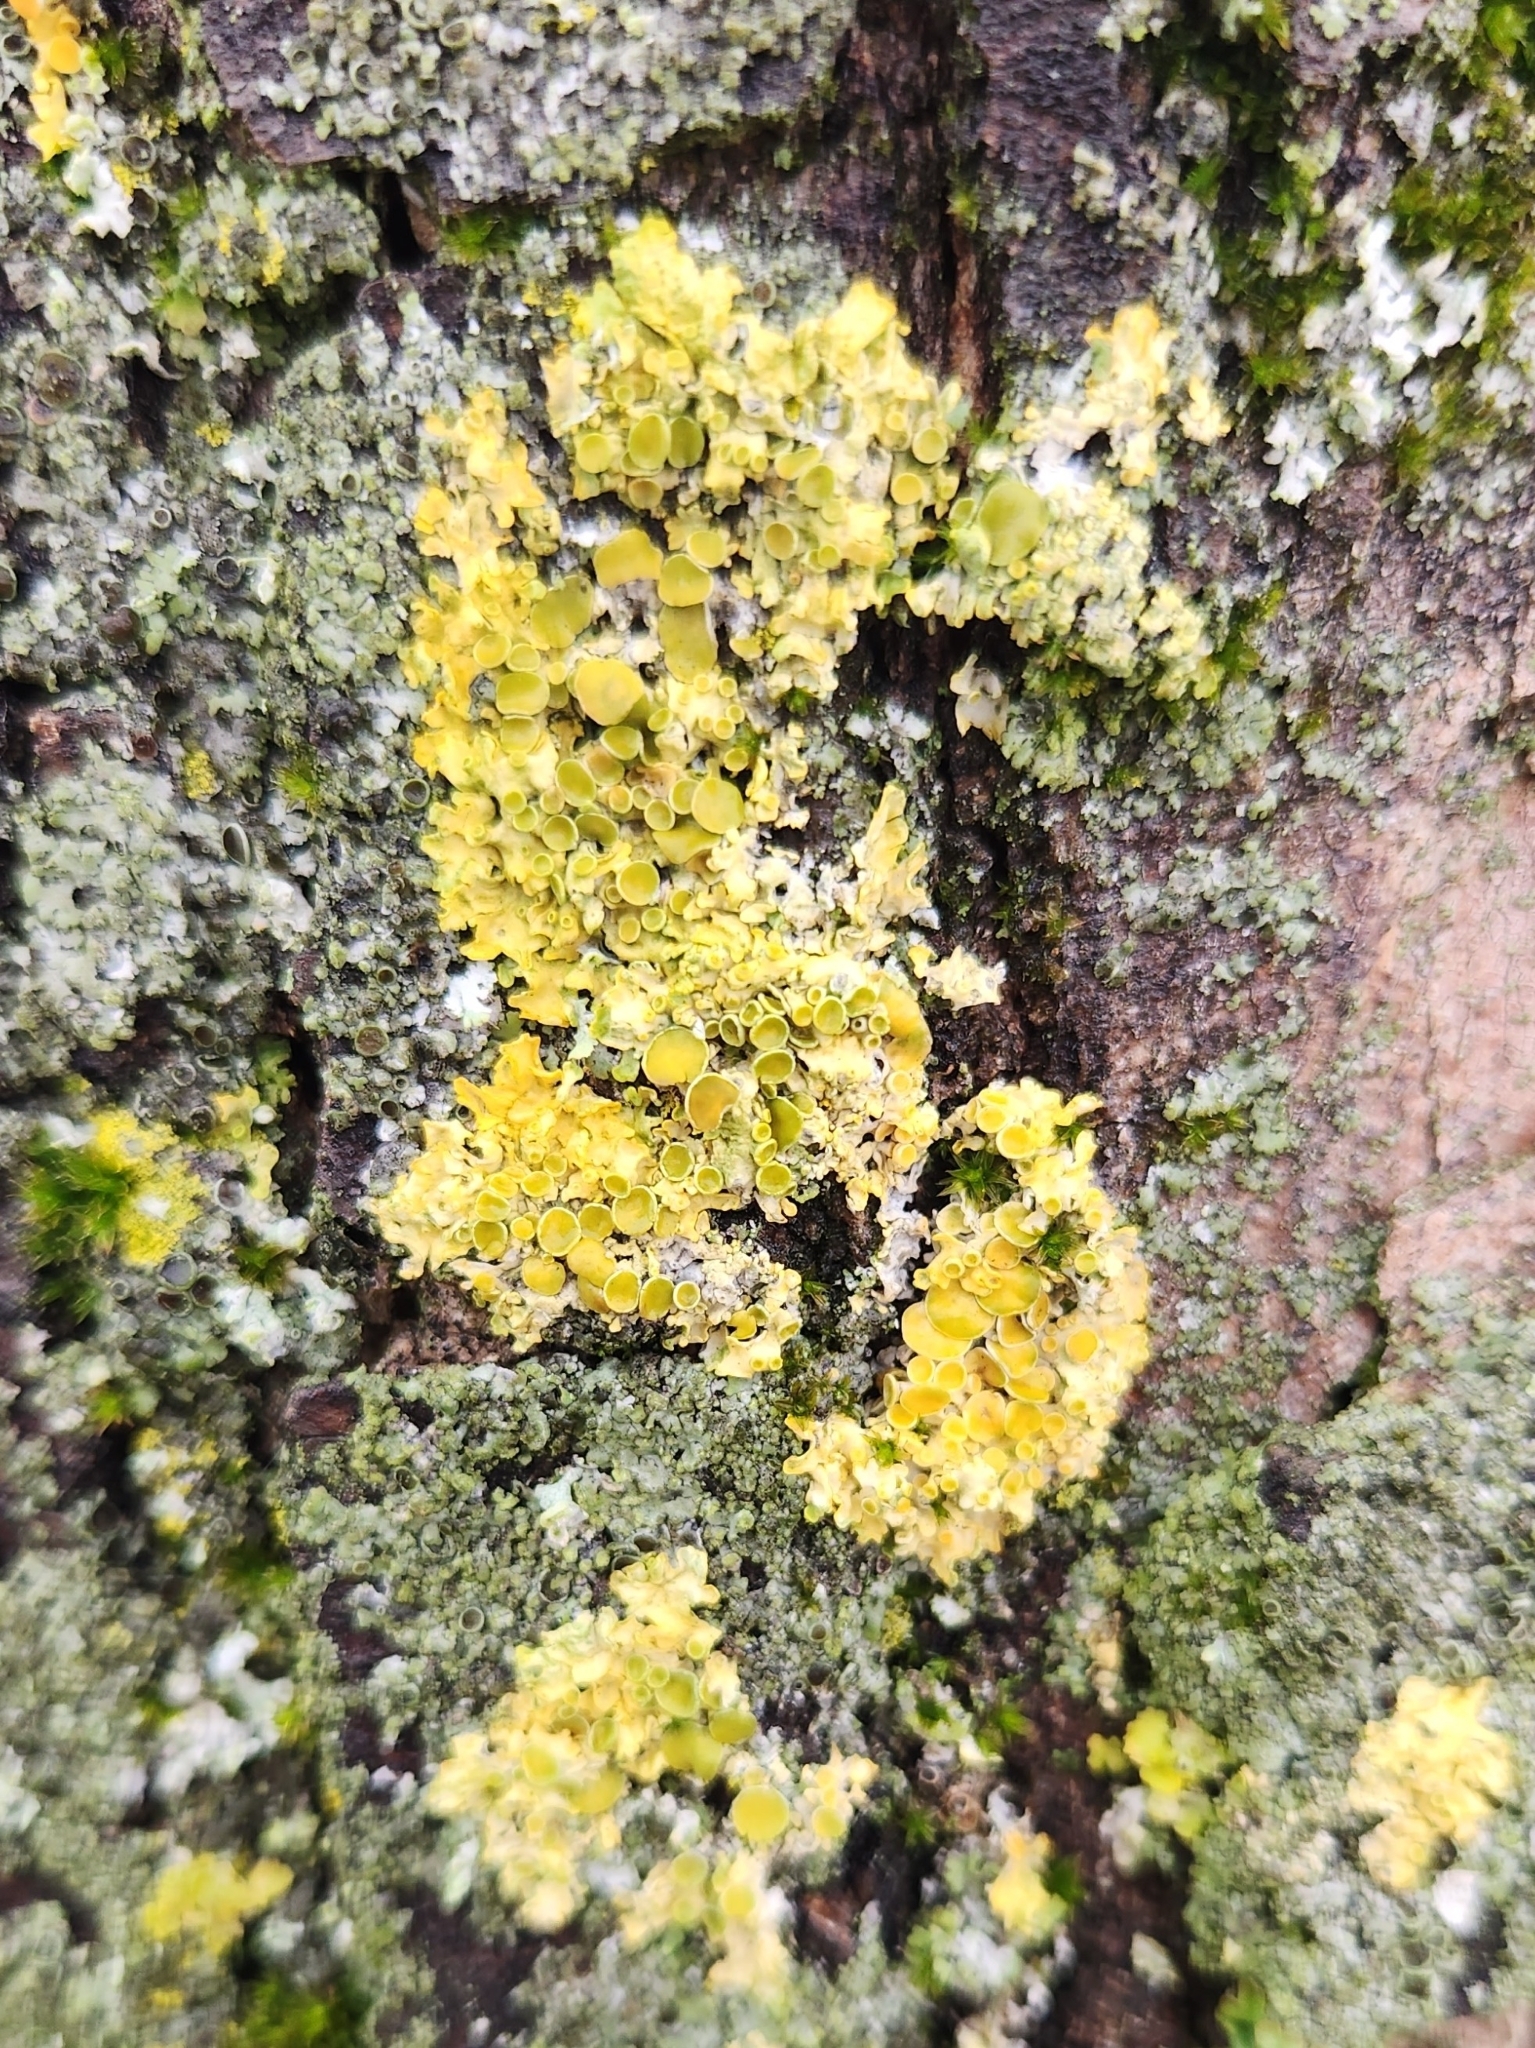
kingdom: Fungi
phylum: Ascomycota
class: Lecanoromycetes
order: Teloschistales
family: Teloschistaceae
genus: Xanthoria
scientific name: Xanthoria parietina
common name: Common orange lichen
